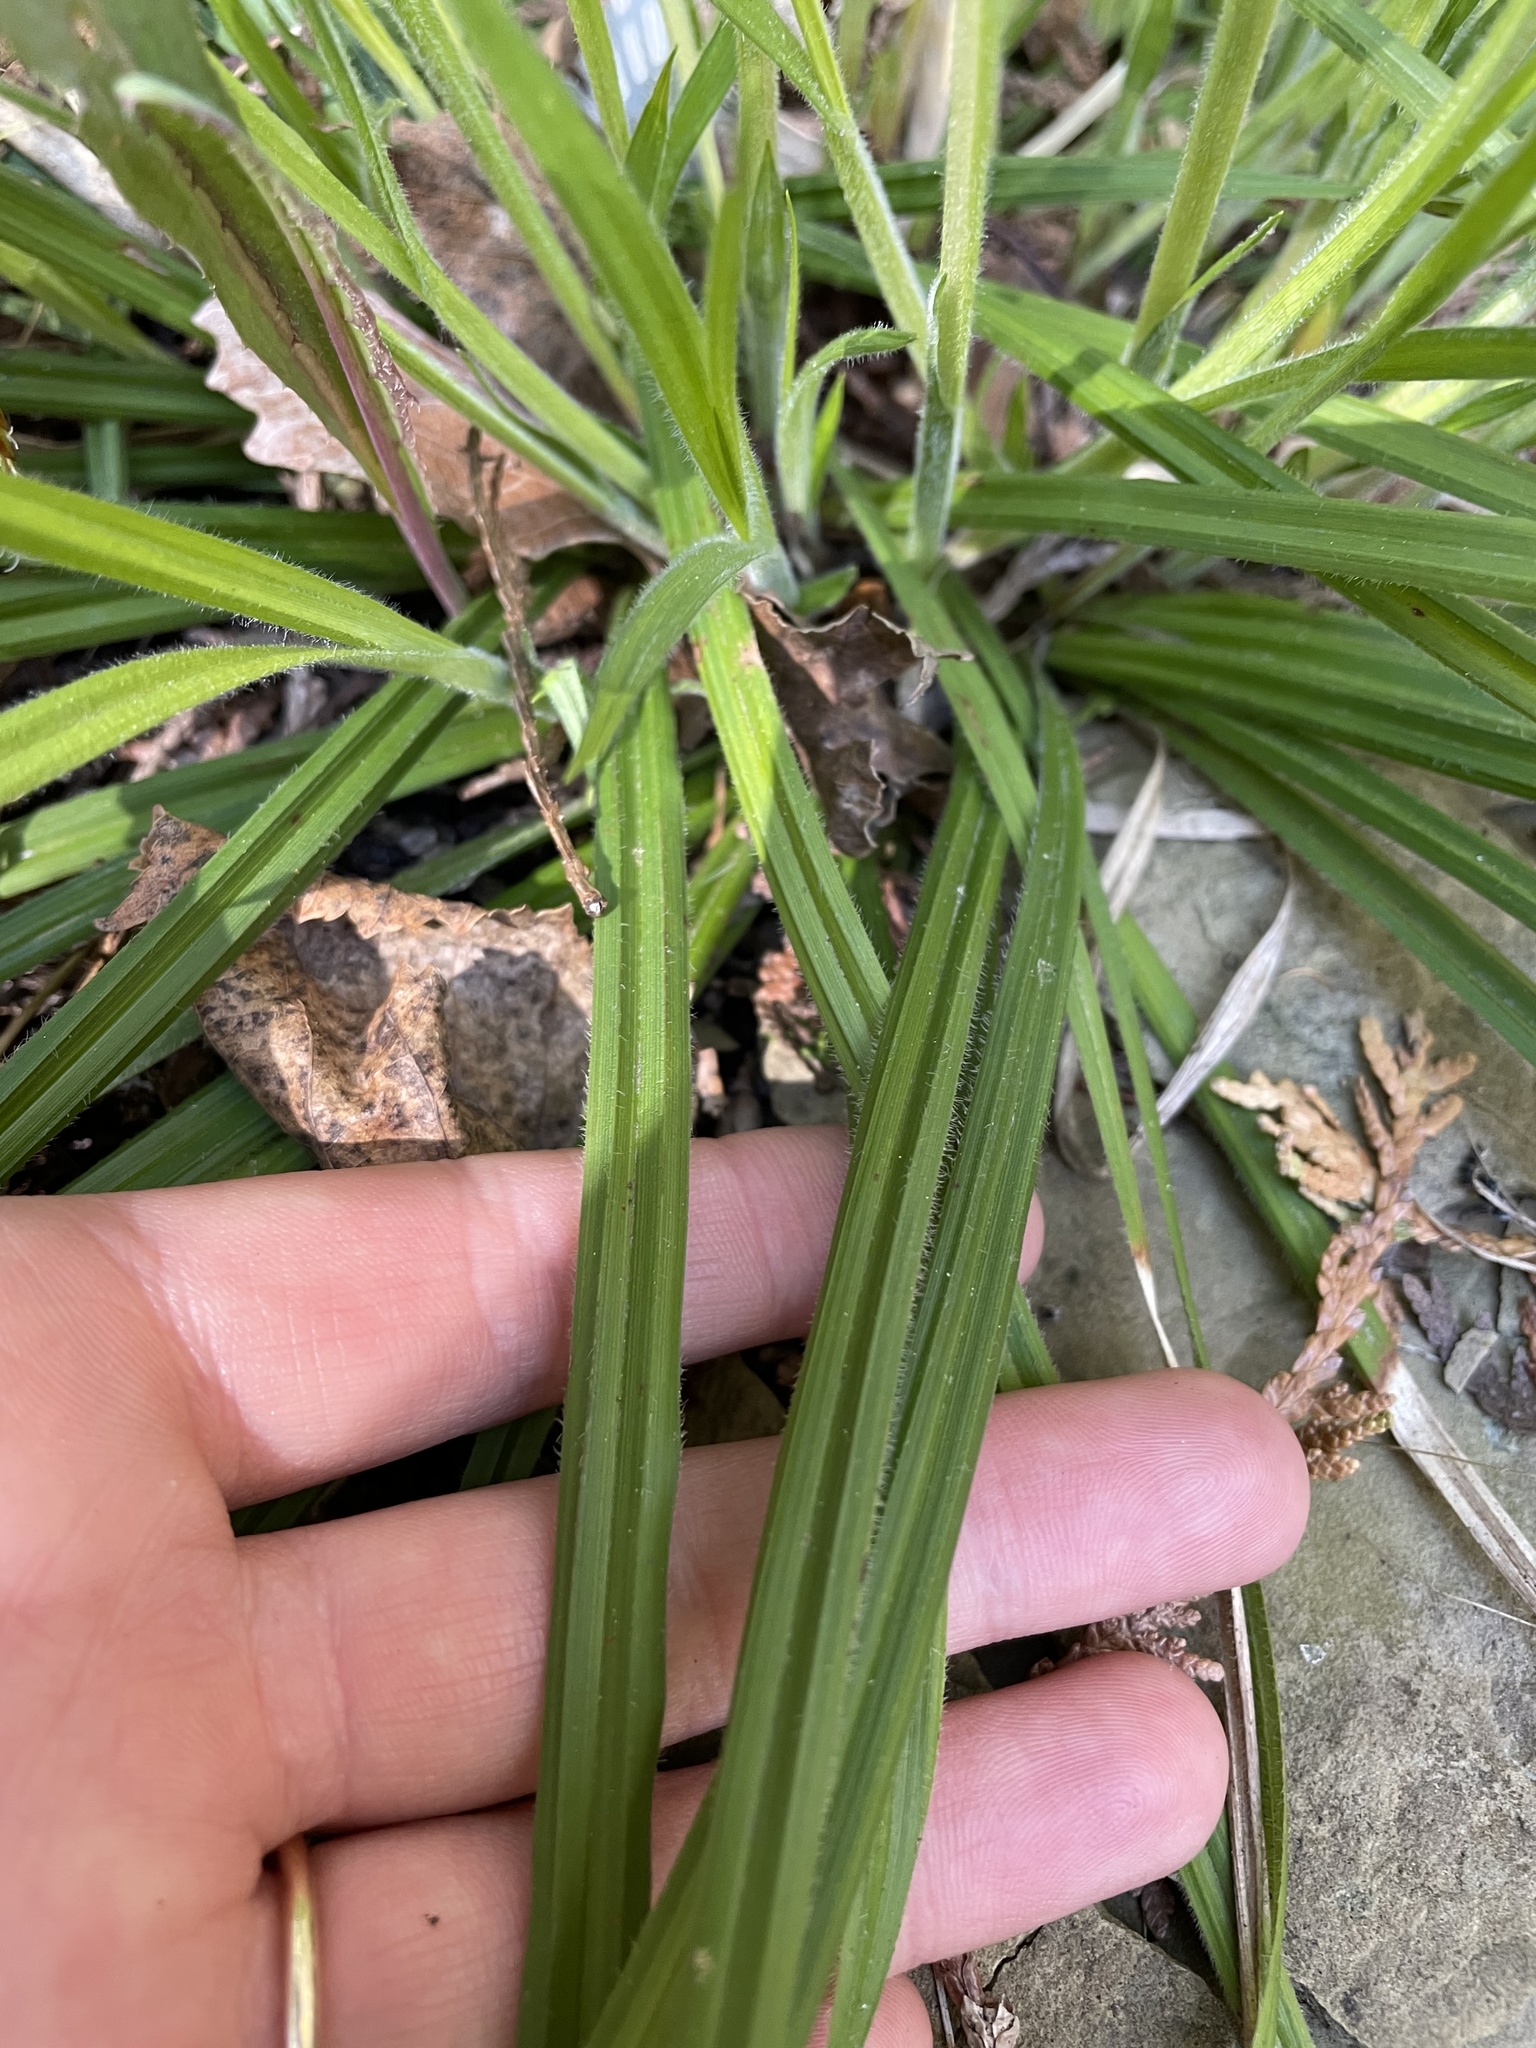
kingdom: Plantae
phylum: Tracheophyta
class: Liliopsida
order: Poales
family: Cyperaceae
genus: Carex
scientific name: Carex castanea
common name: Chestnut sedge
